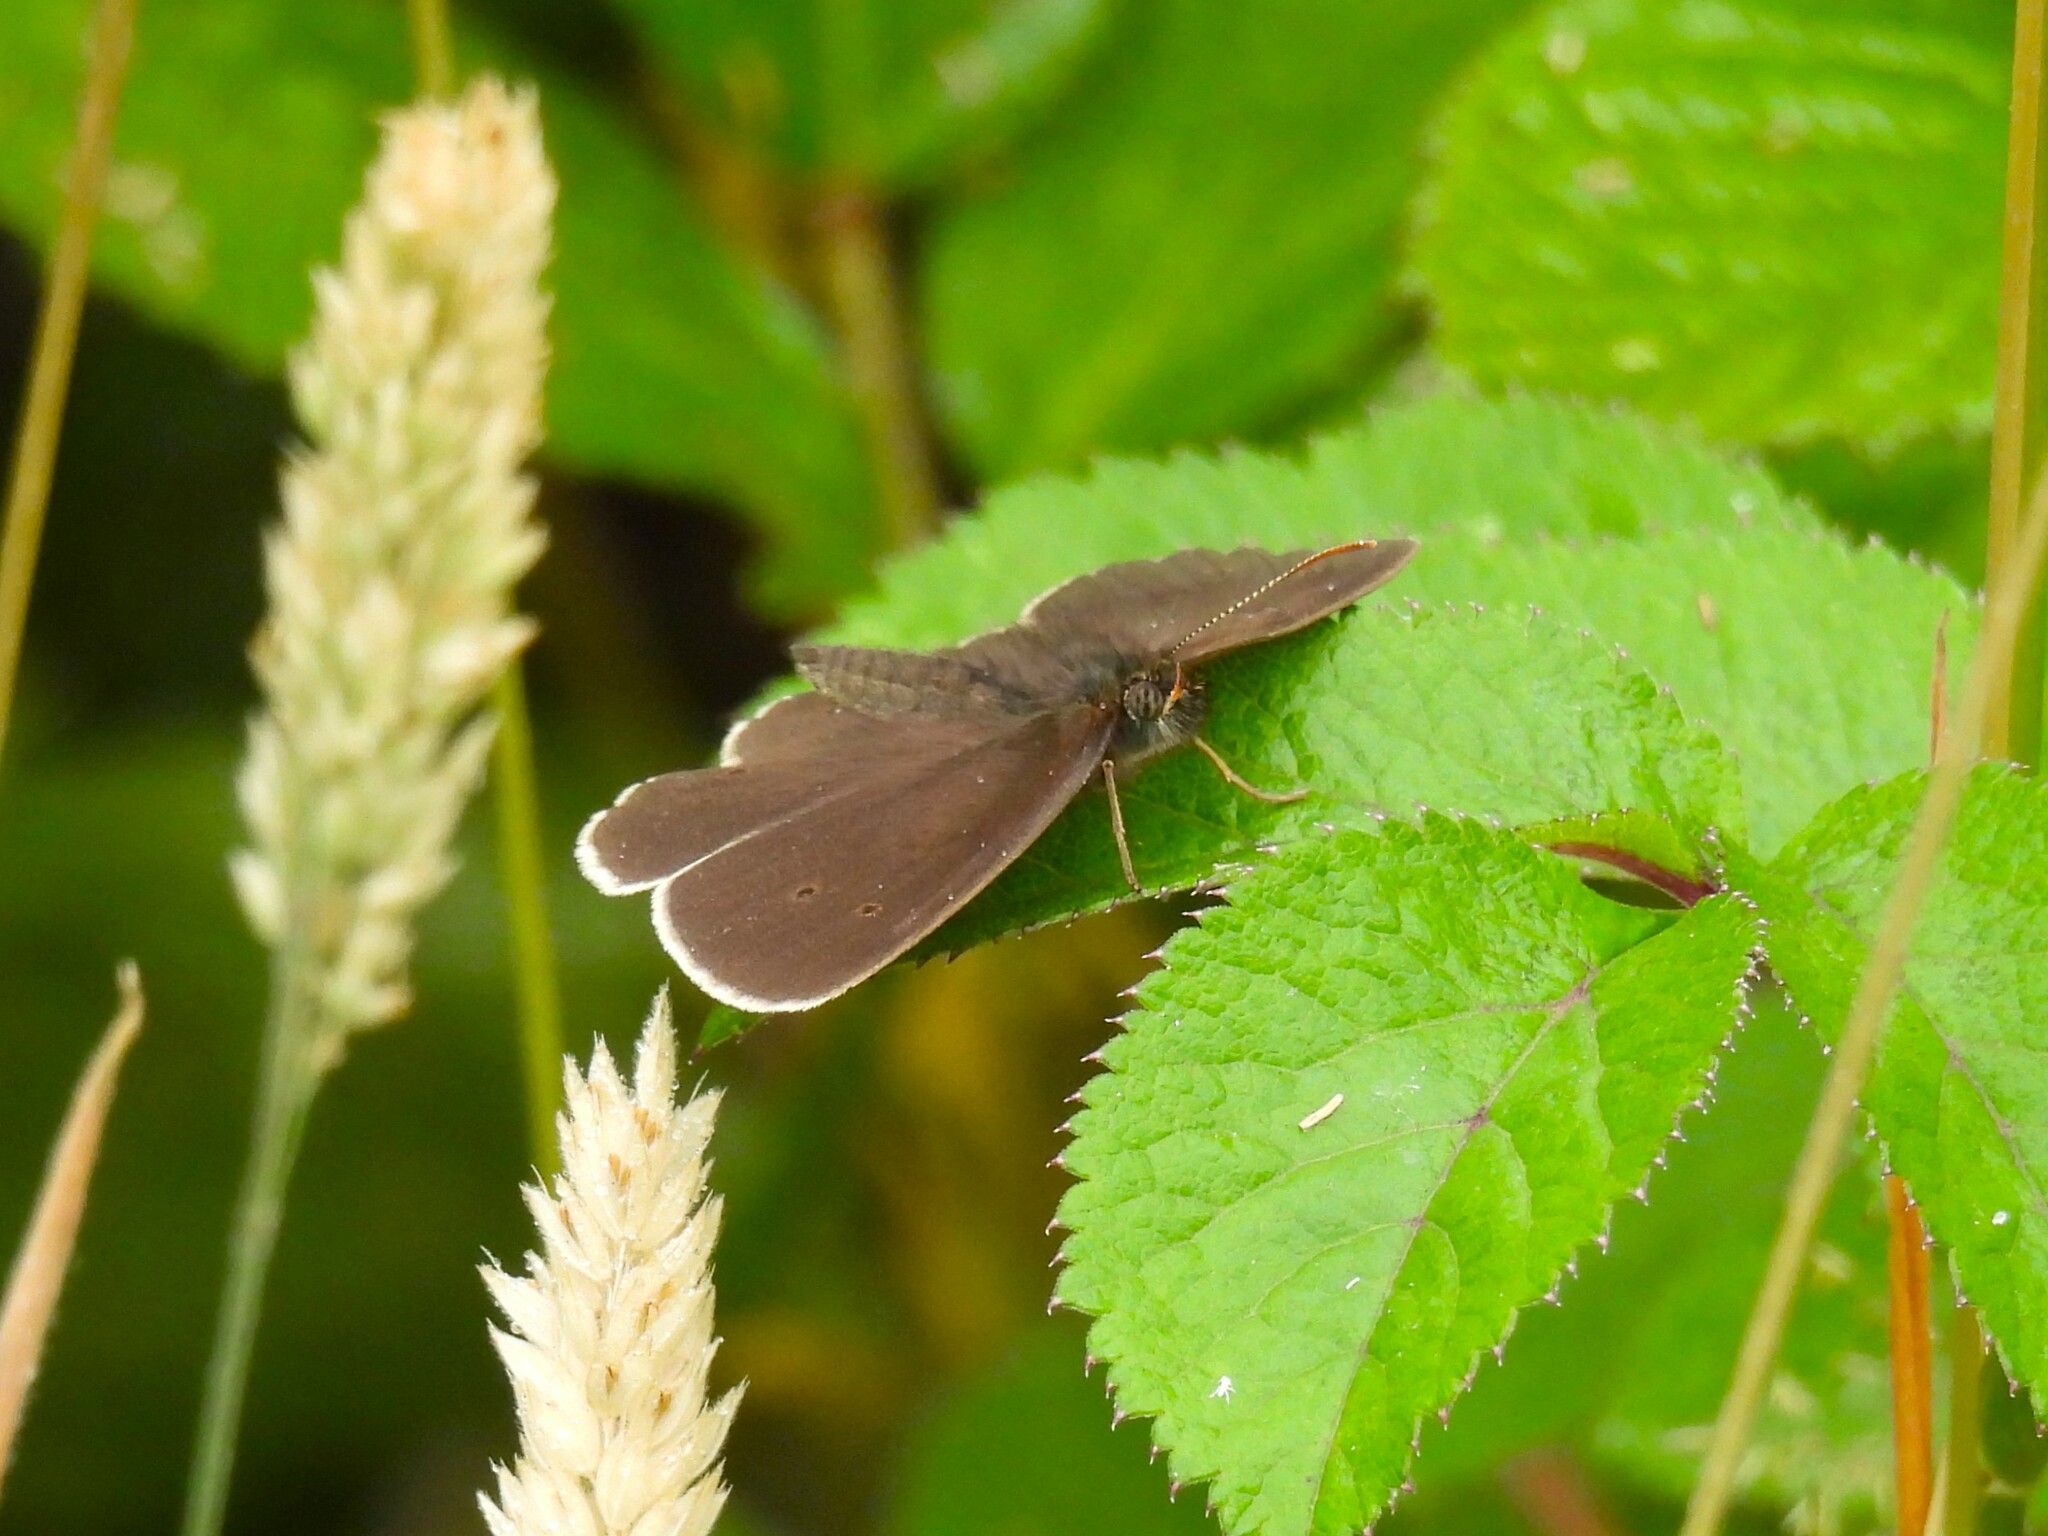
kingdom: Animalia
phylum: Arthropoda
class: Insecta
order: Lepidoptera
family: Nymphalidae
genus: Aphantopus
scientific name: Aphantopus hyperantus
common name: Ringlet
